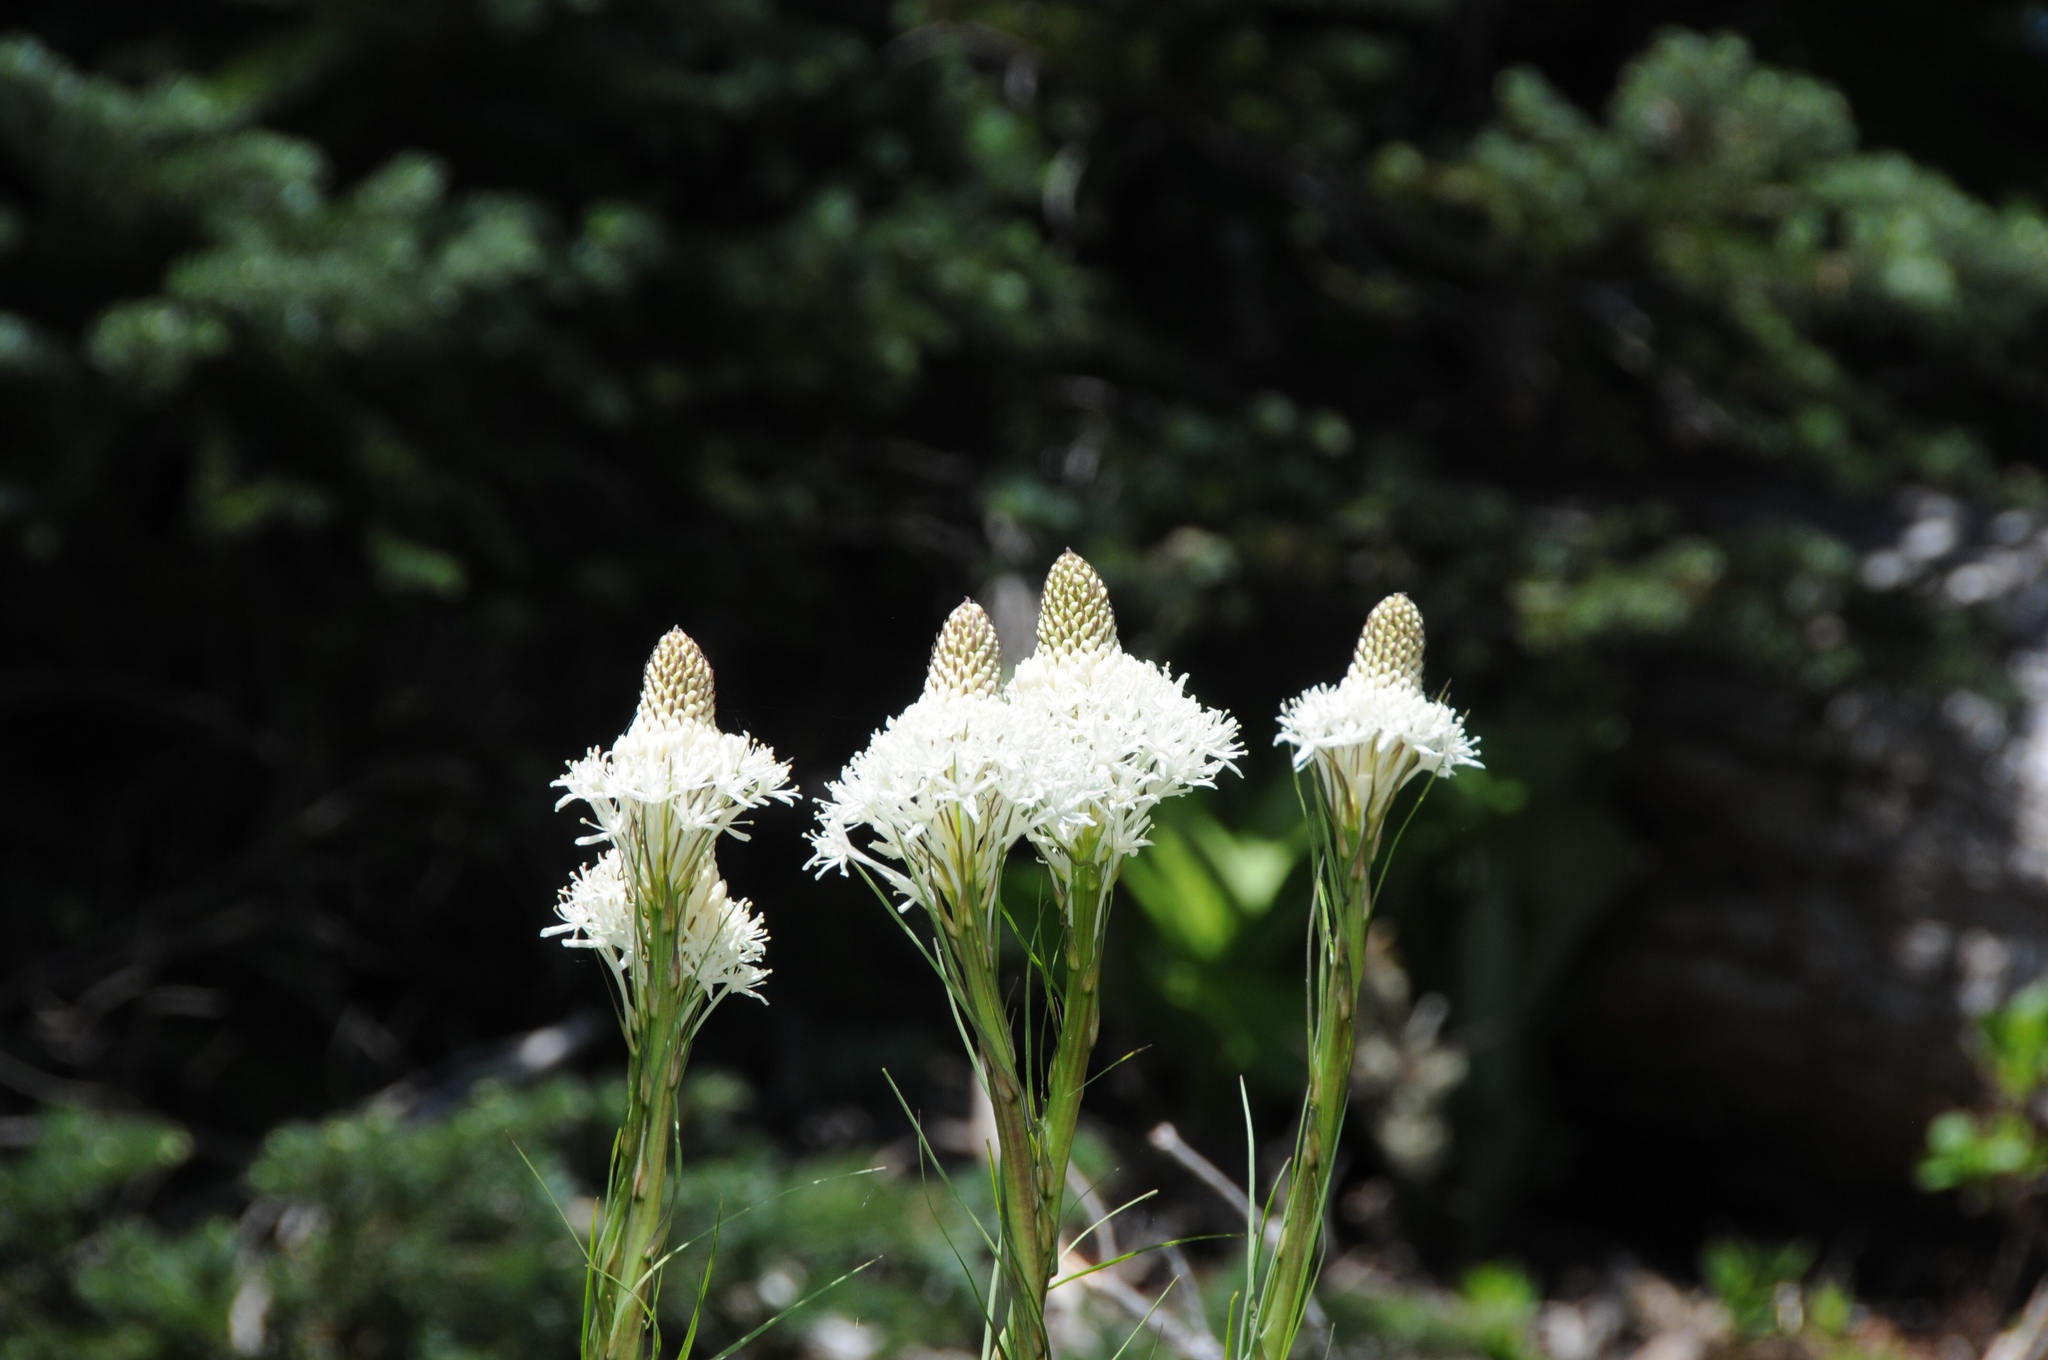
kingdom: Plantae
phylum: Tracheophyta
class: Liliopsida
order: Liliales
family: Melanthiaceae
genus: Xerophyllum
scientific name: Xerophyllum tenax
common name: Bear-grass
